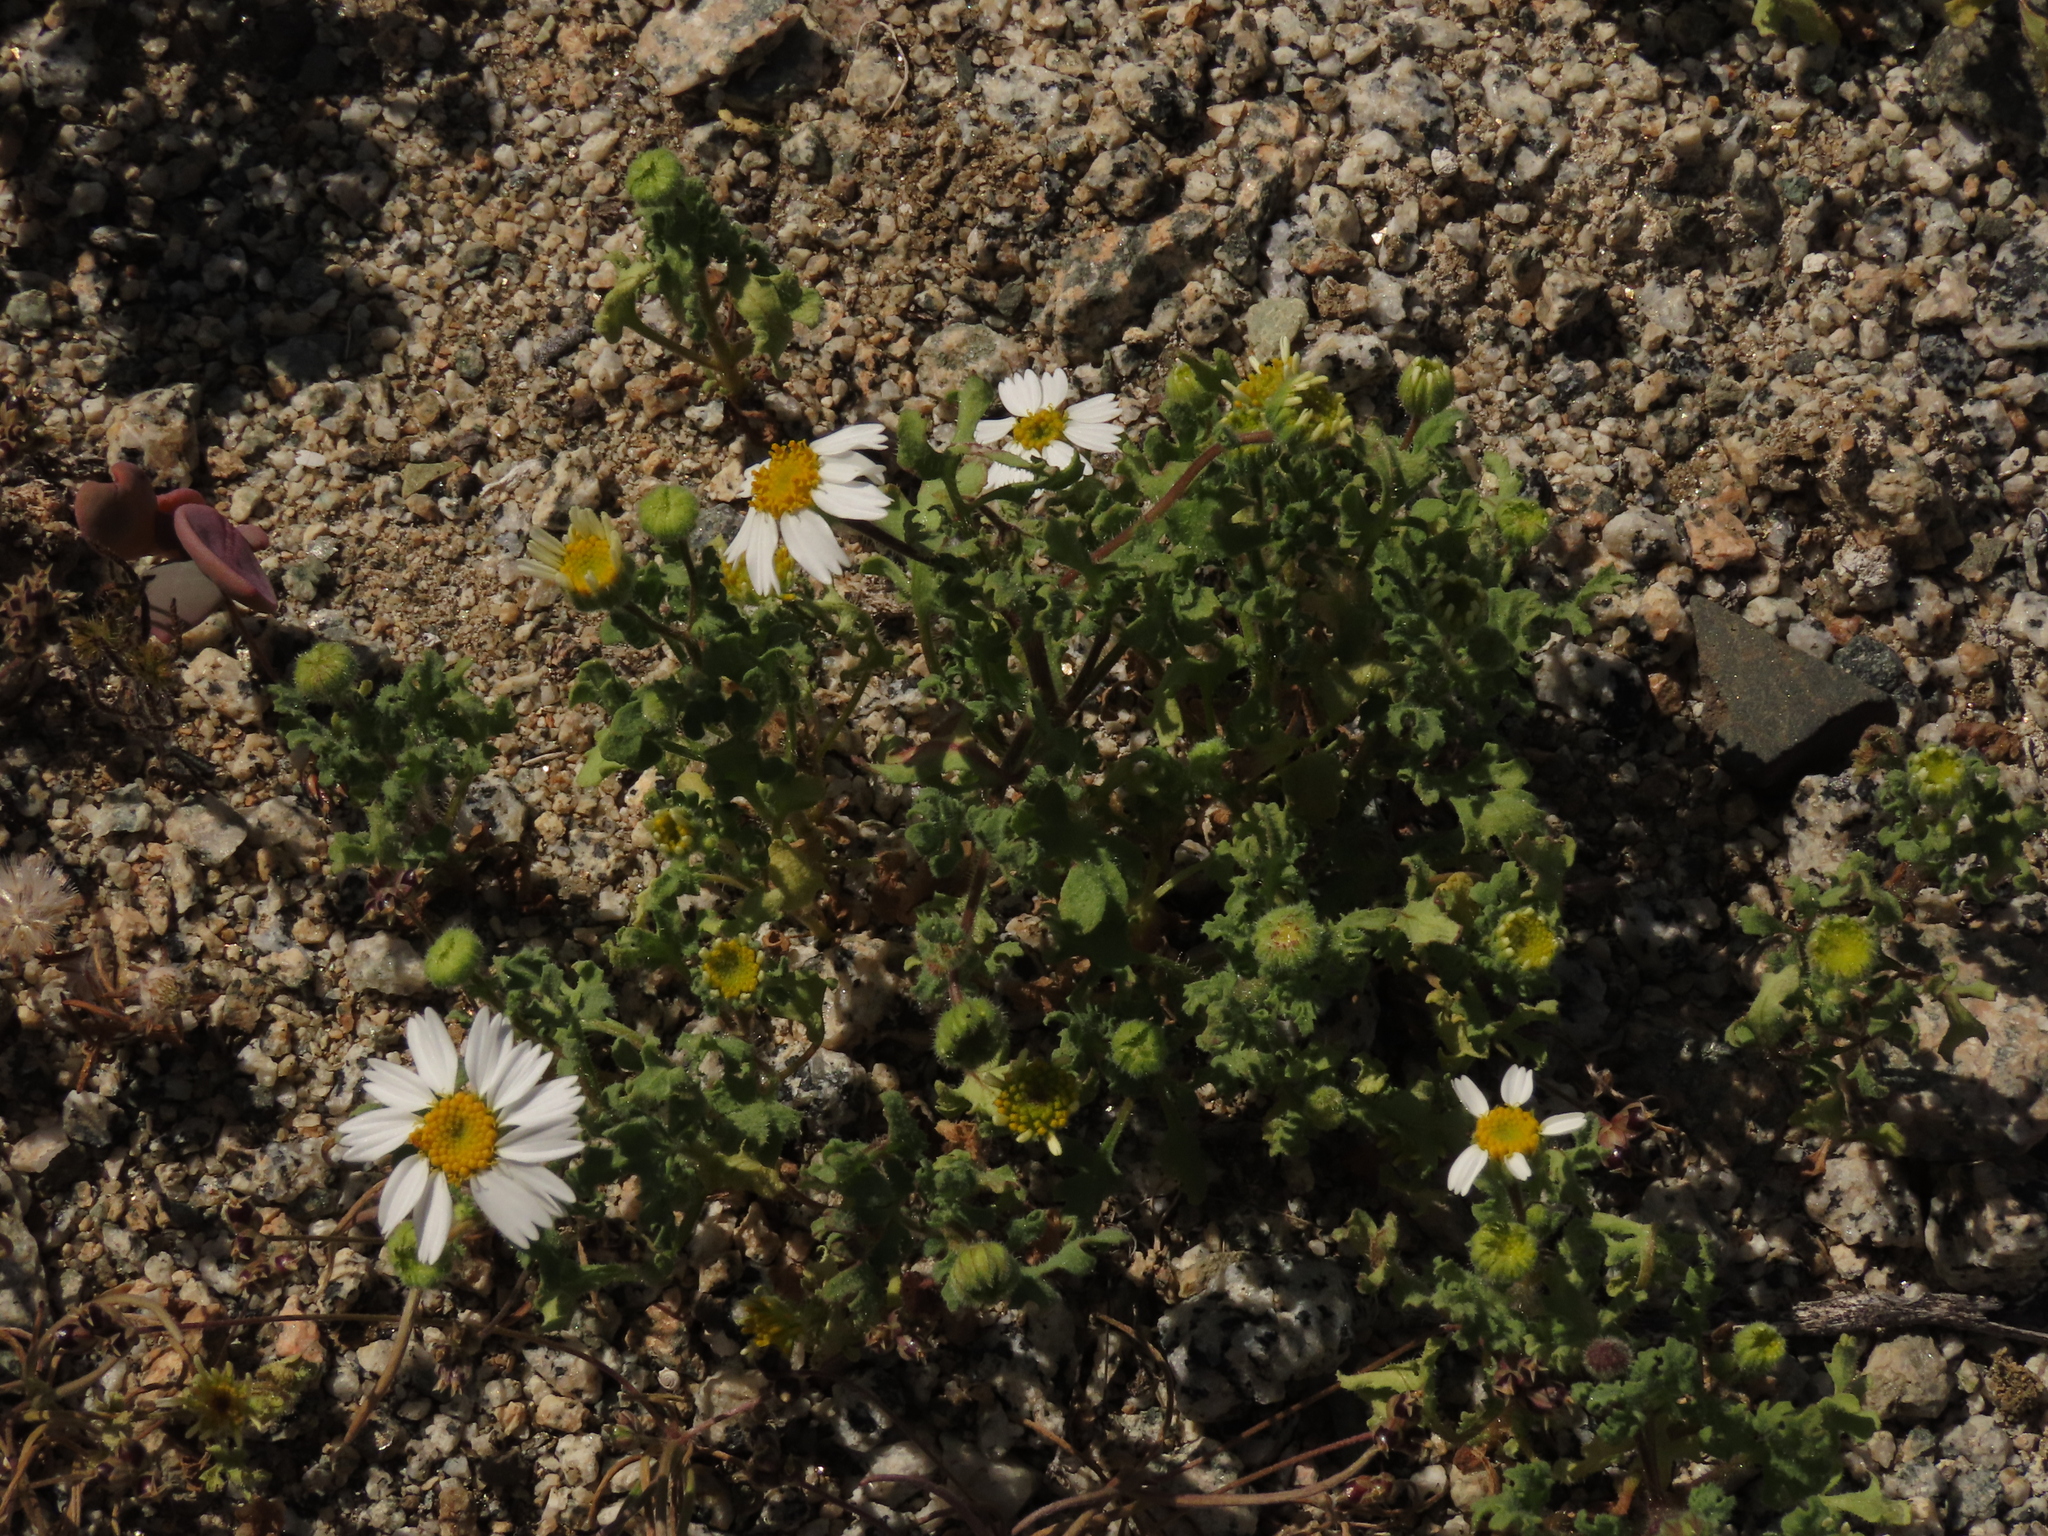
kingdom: Plantae
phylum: Tracheophyta
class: Magnoliopsida
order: Asterales
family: Asteraceae
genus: Laphamia
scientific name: Laphamia emoryi
